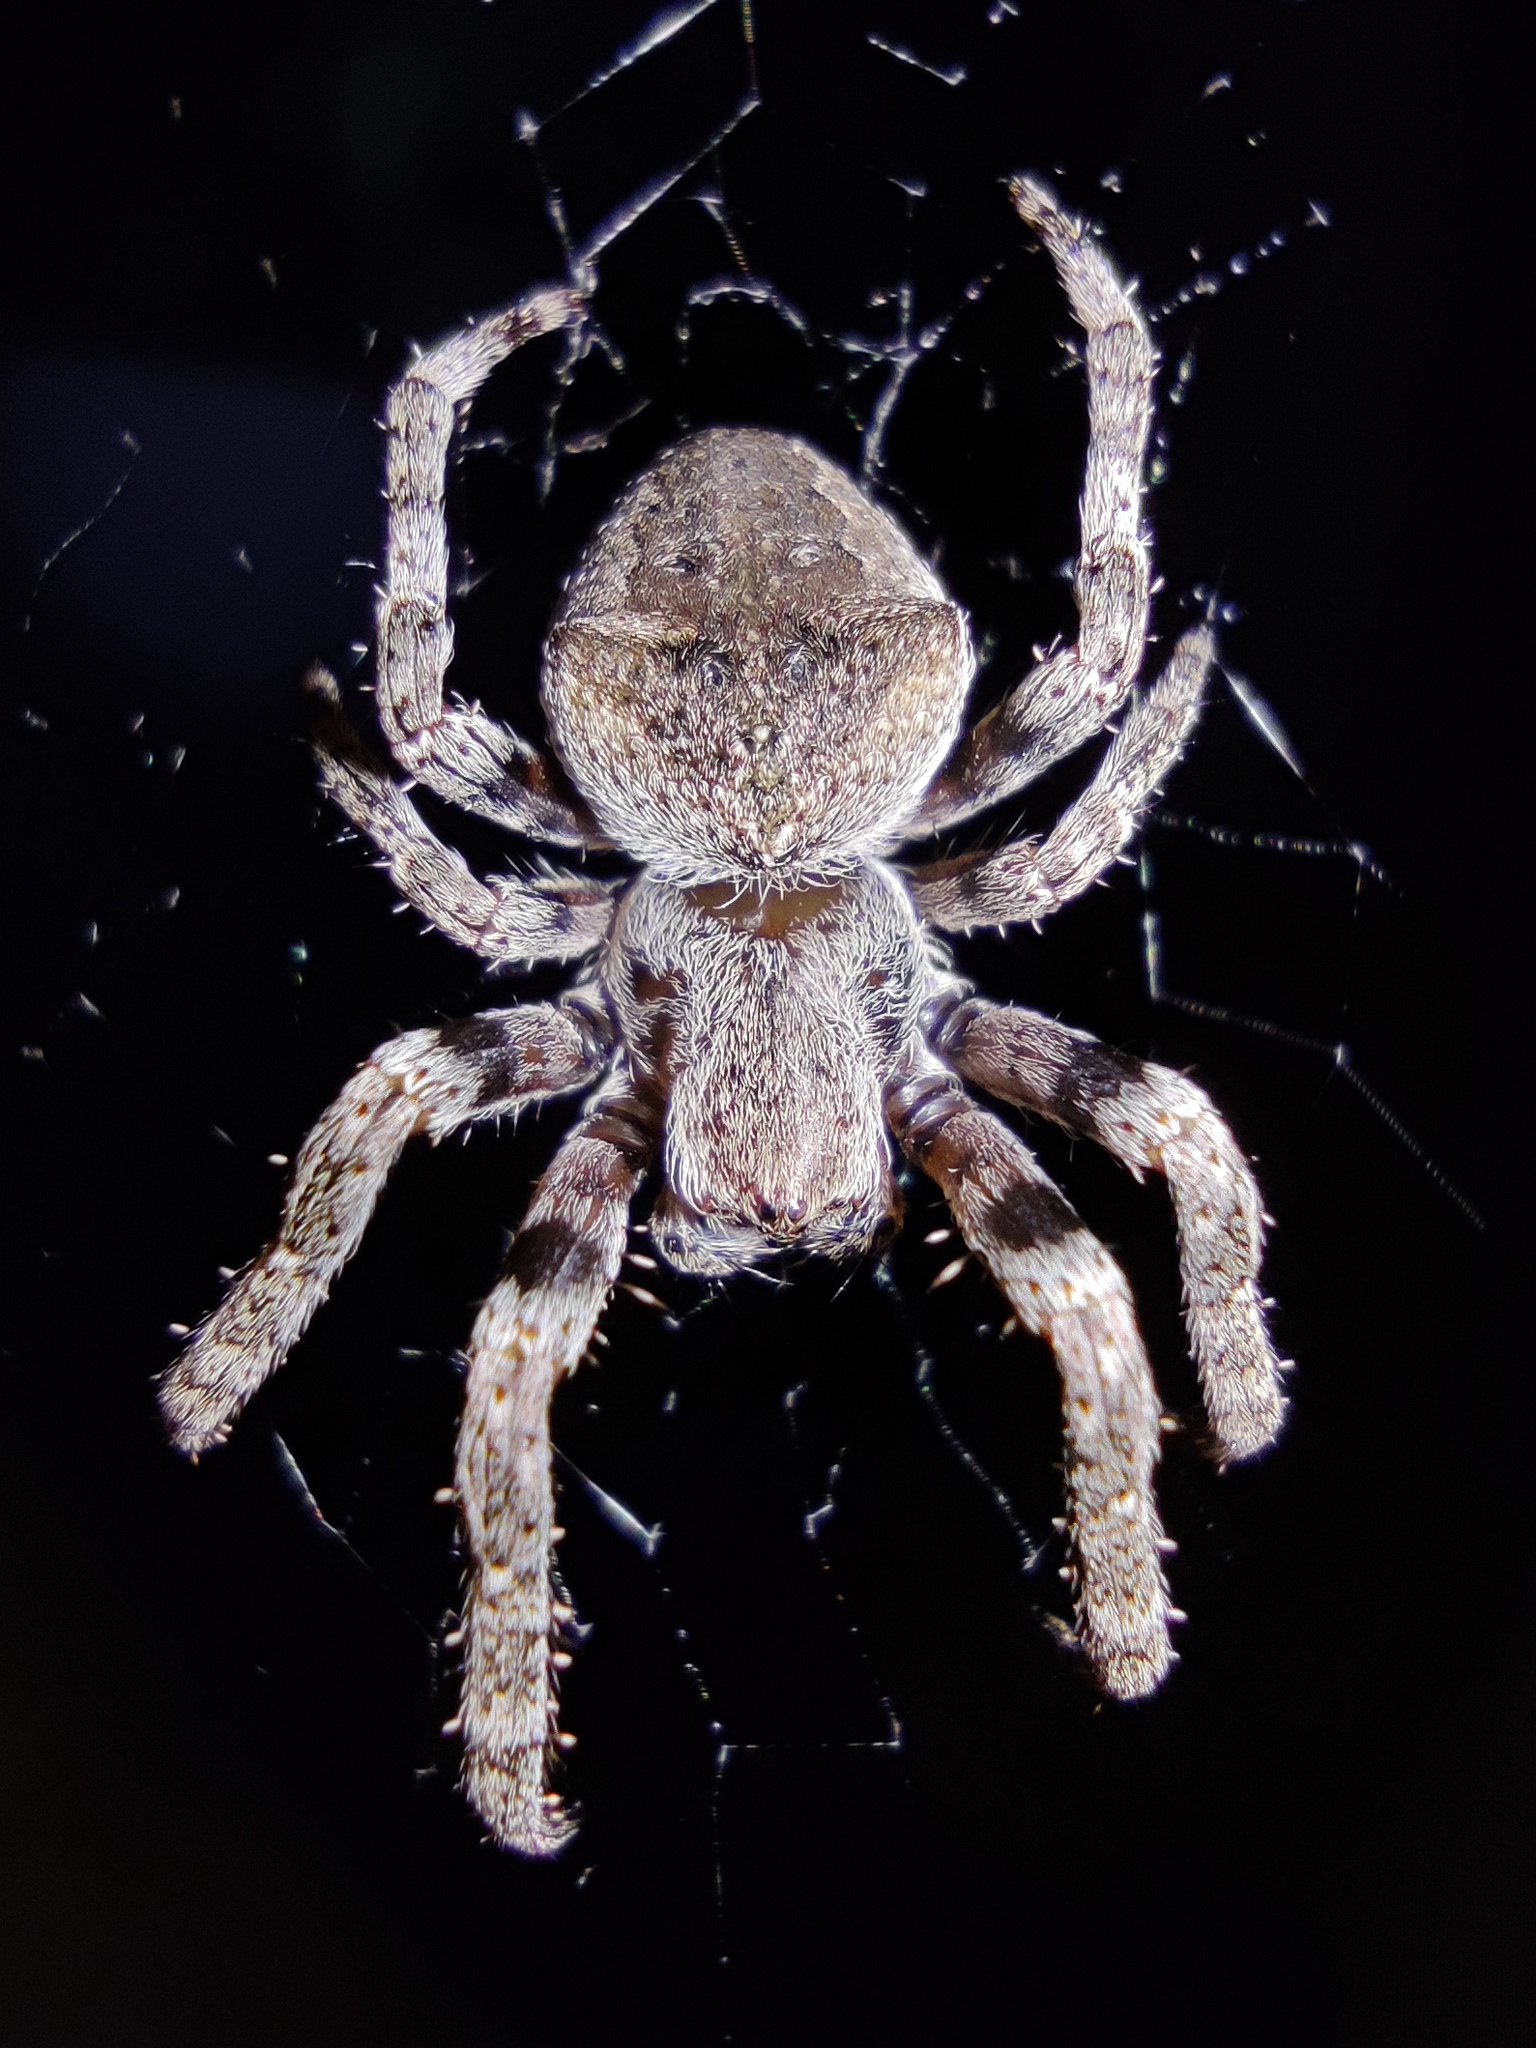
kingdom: Animalia
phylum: Arthropoda
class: Arachnida
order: Araneae
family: Araneidae
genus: Araneus
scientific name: Araneus angulatus
